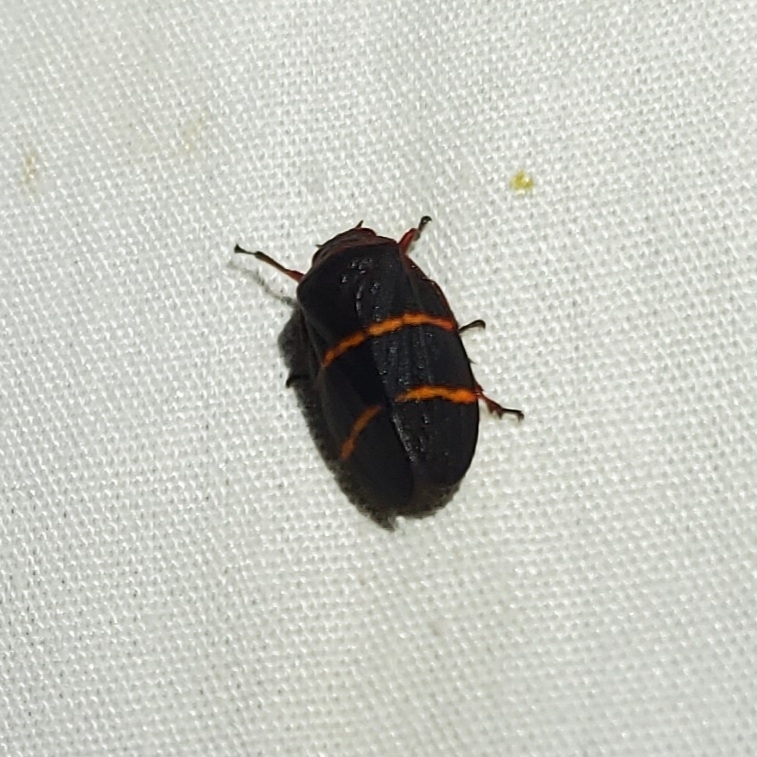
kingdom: Animalia
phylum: Arthropoda
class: Insecta
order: Hemiptera
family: Cercopidae
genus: Prosapia
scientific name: Prosapia bicincta
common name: Twolined spittlebug
